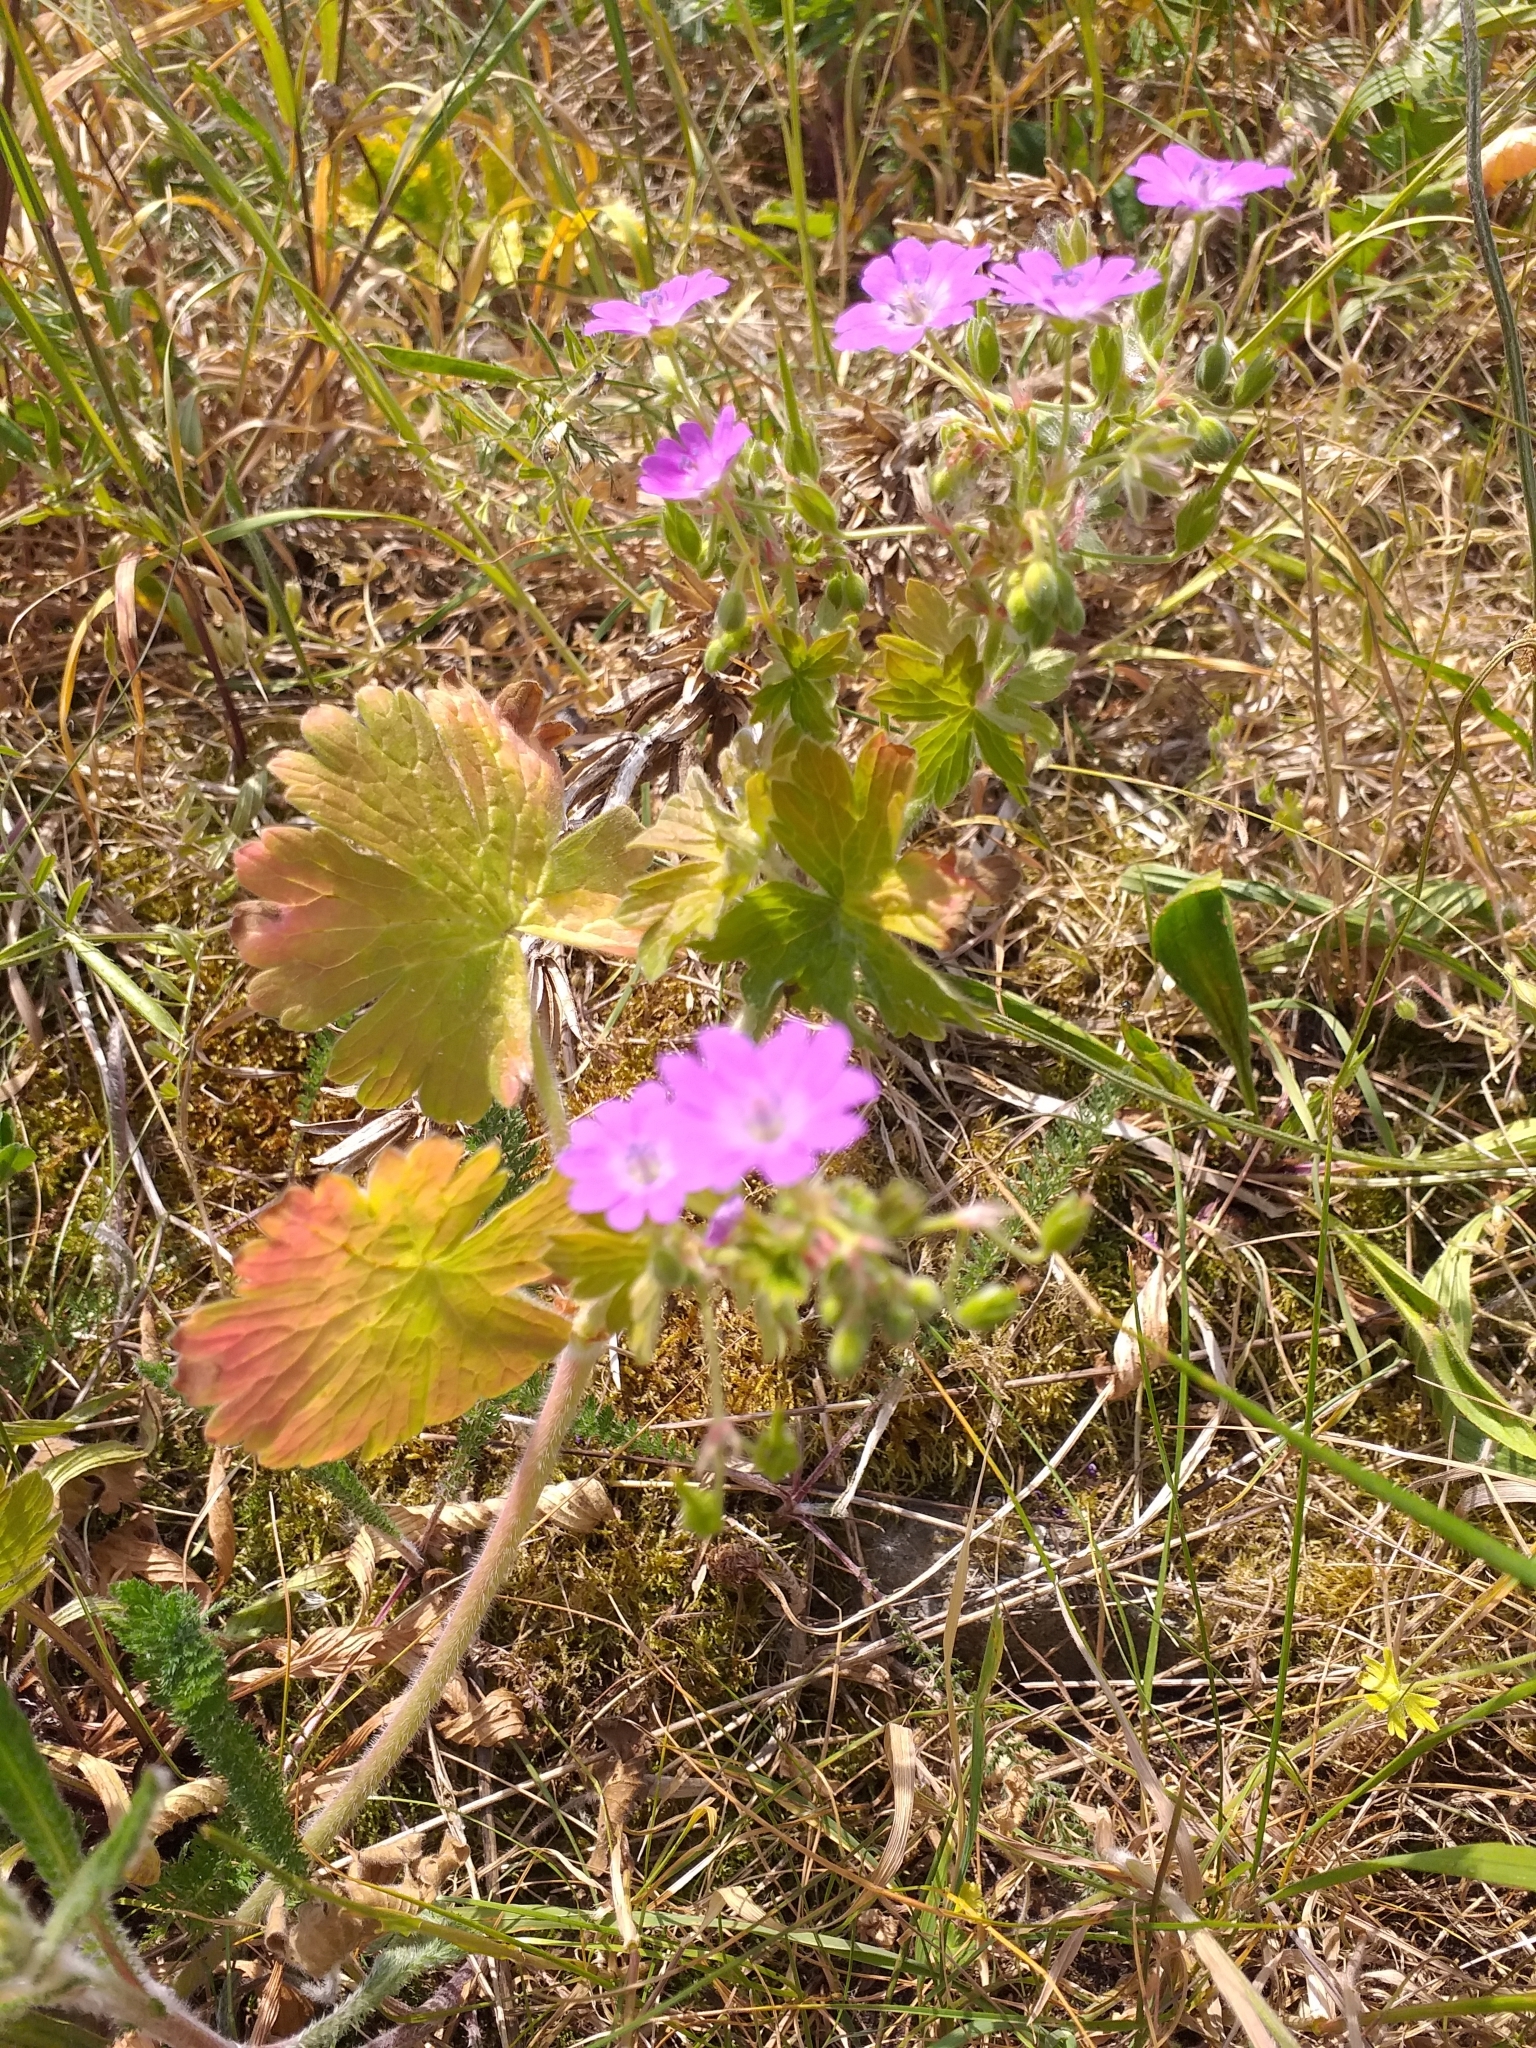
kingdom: Plantae
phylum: Tracheophyta
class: Magnoliopsida
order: Geraniales
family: Geraniaceae
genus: Geranium
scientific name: Geranium pyrenaicum
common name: Hedgerow crane's-bill
